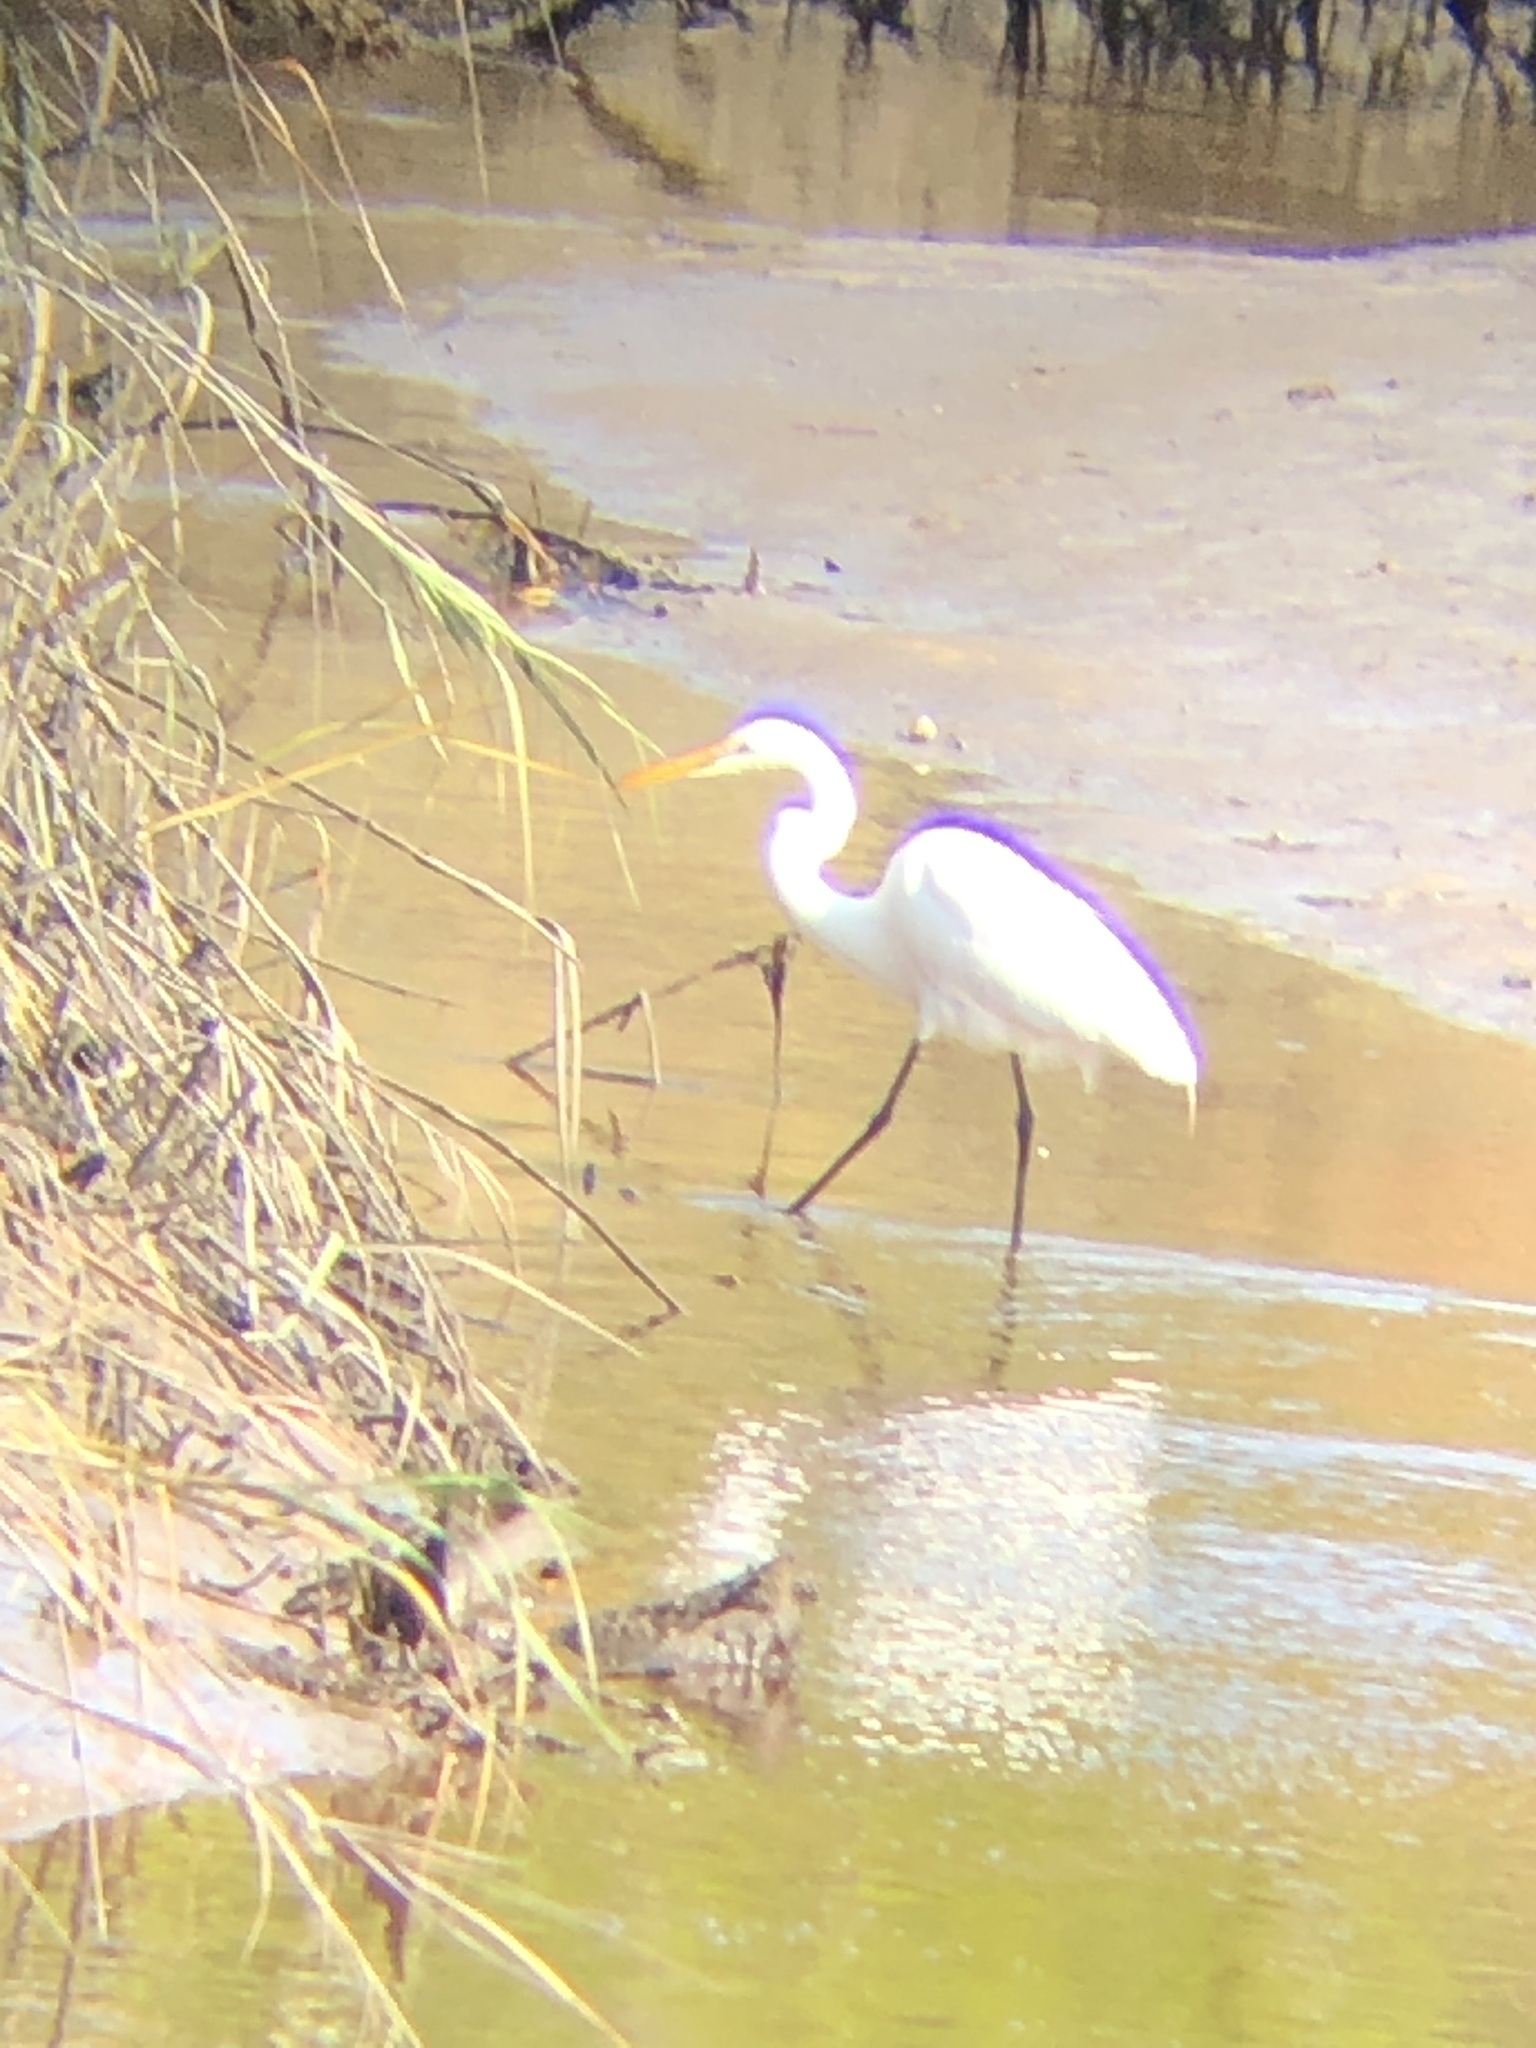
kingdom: Animalia
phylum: Chordata
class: Aves
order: Pelecaniformes
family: Ardeidae
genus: Ardea
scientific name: Ardea alba
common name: Great egret
